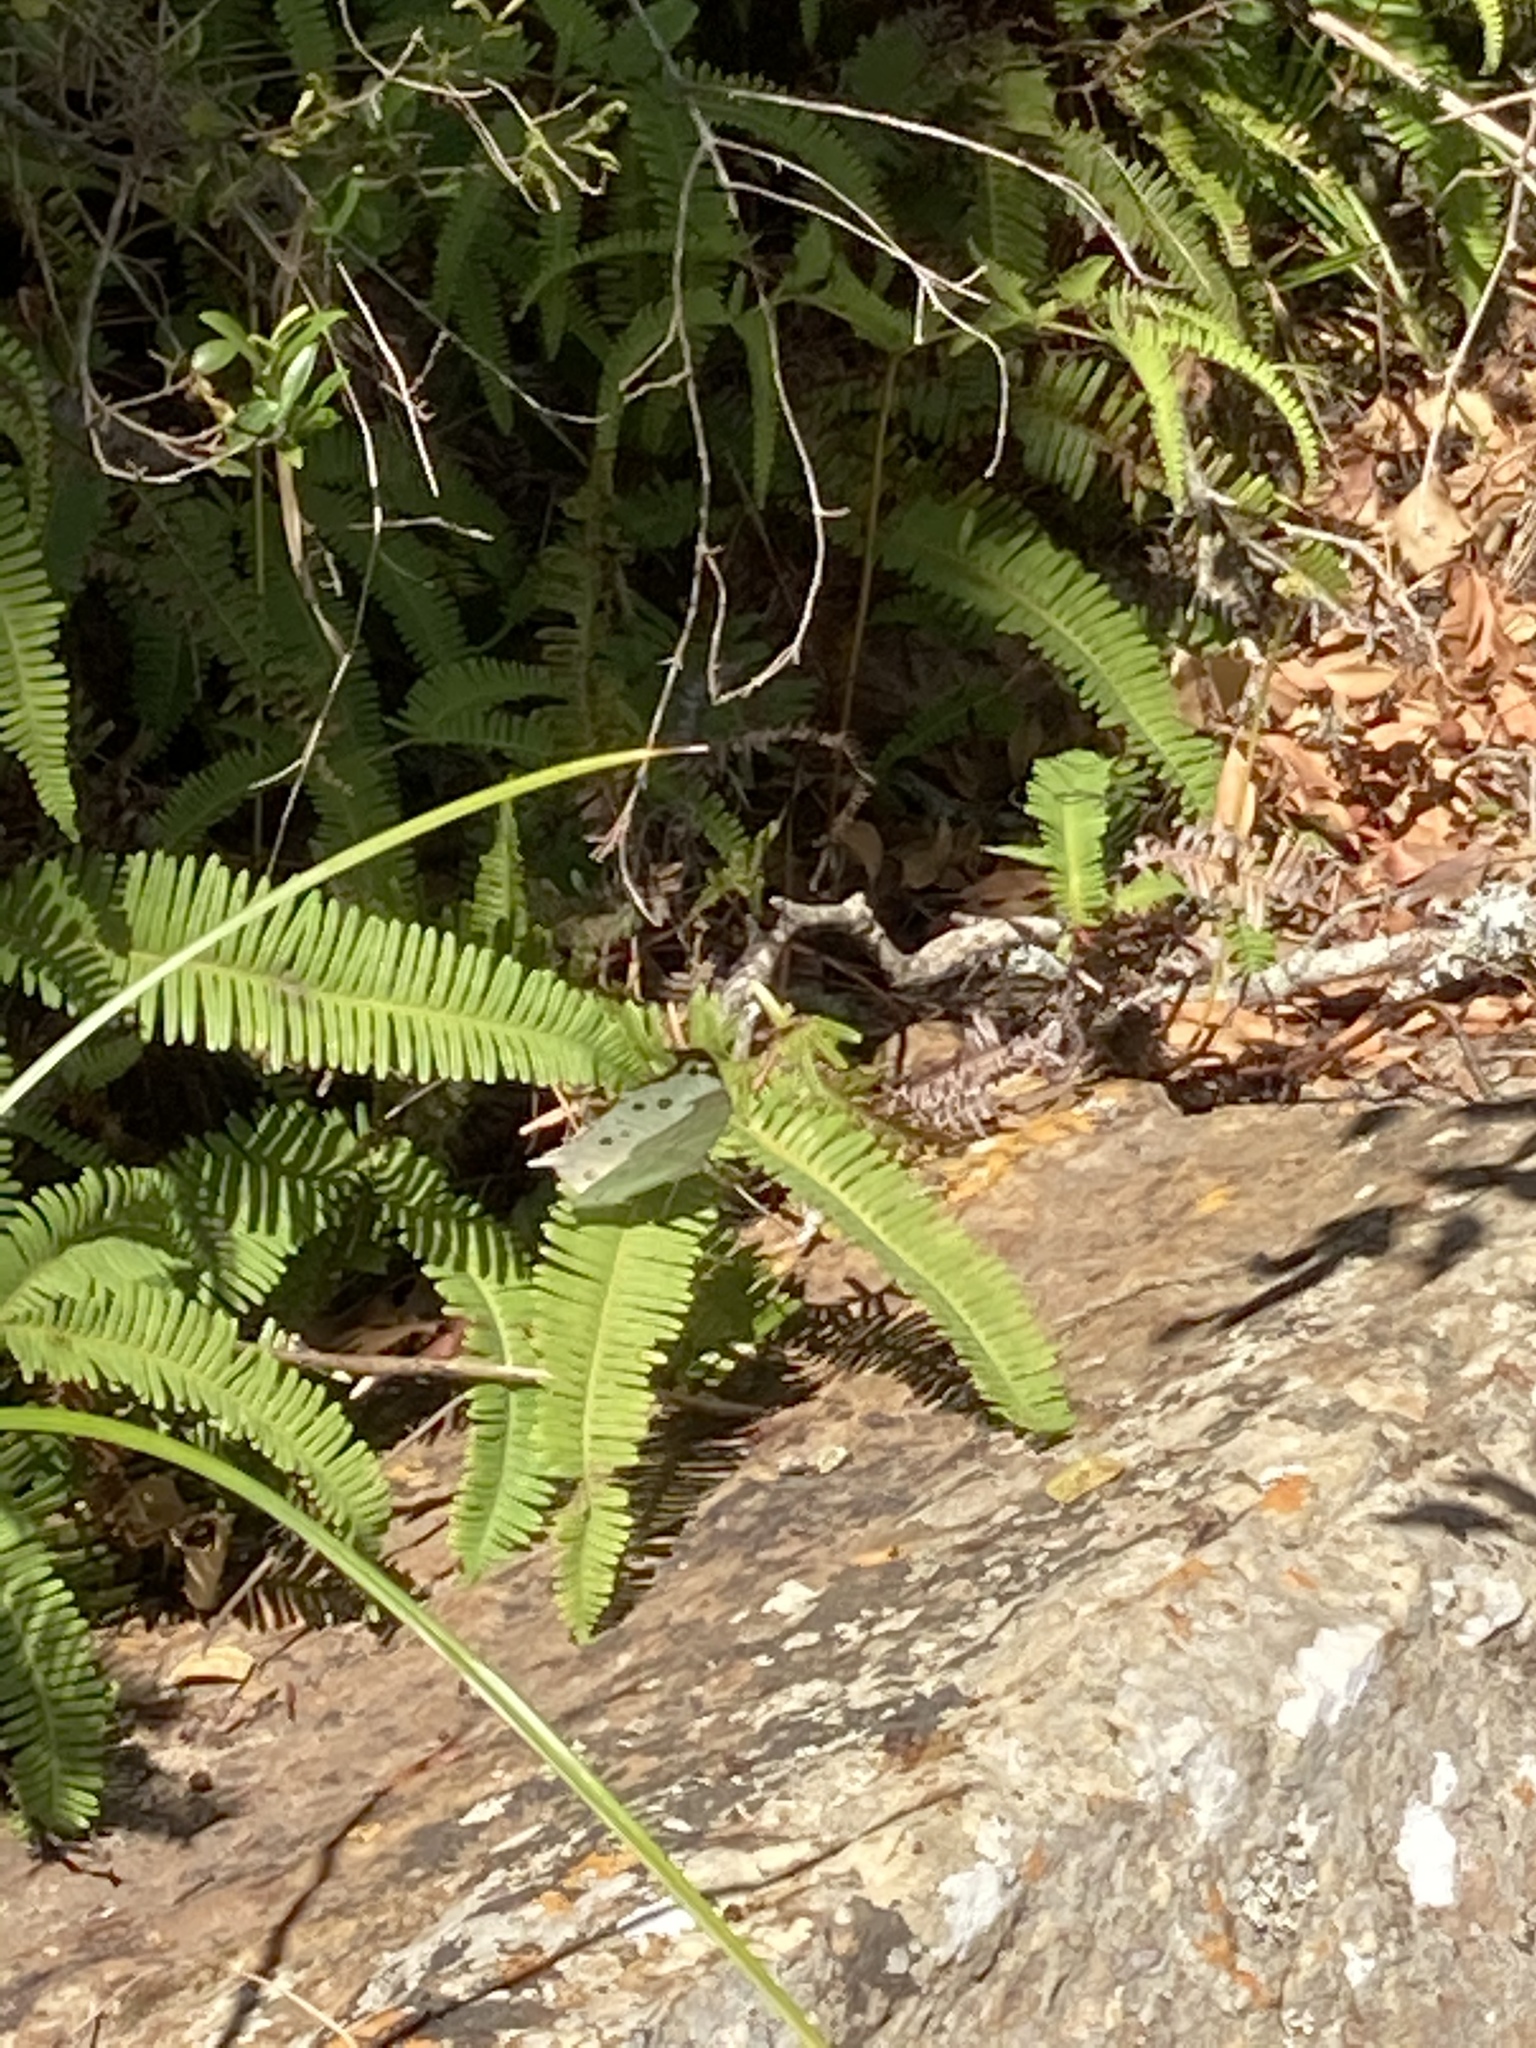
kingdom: Animalia
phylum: Arthropoda
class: Insecta
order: Lepidoptera
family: Nymphalidae
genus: Salamis
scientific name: Salamis Protogoniomorpha parhassus
